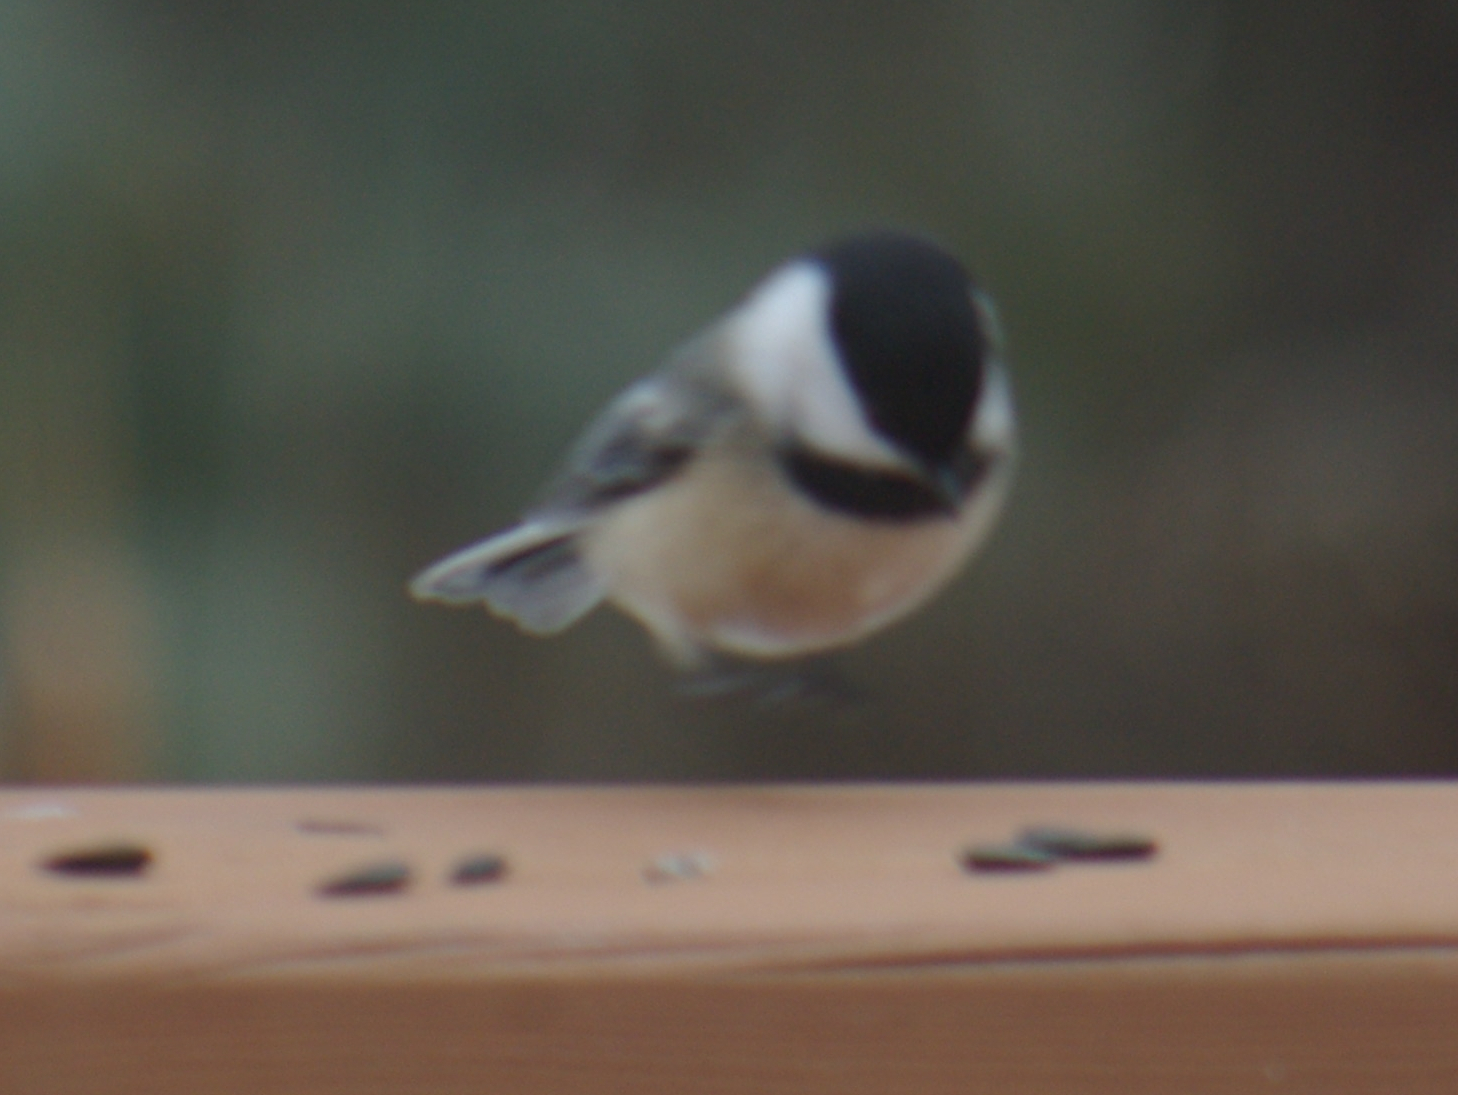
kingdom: Animalia
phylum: Chordata
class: Aves
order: Passeriformes
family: Paridae
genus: Poecile
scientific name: Poecile atricapillus
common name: Black-capped chickadee
